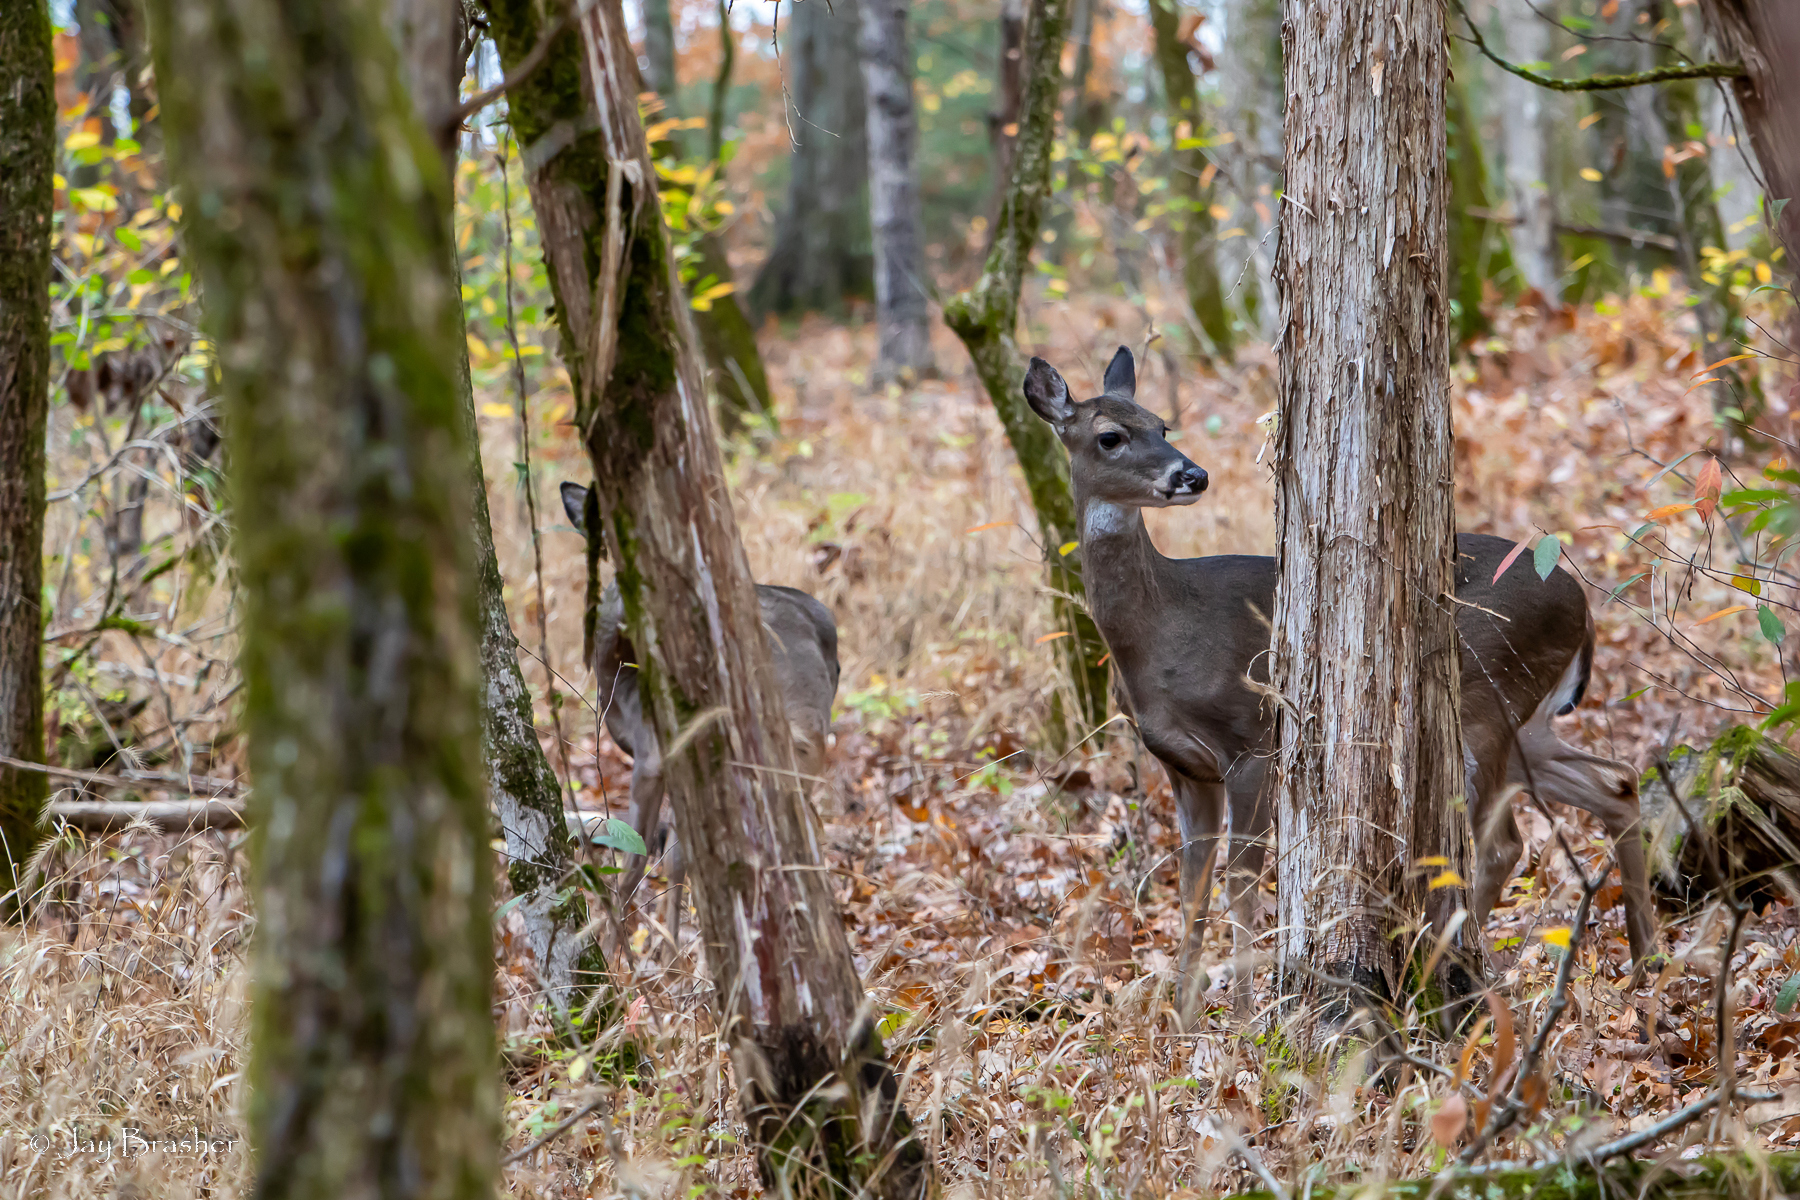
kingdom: Animalia
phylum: Chordata
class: Mammalia
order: Artiodactyla
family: Cervidae
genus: Odocoileus
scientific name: Odocoileus virginianus
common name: White-tailed deer
